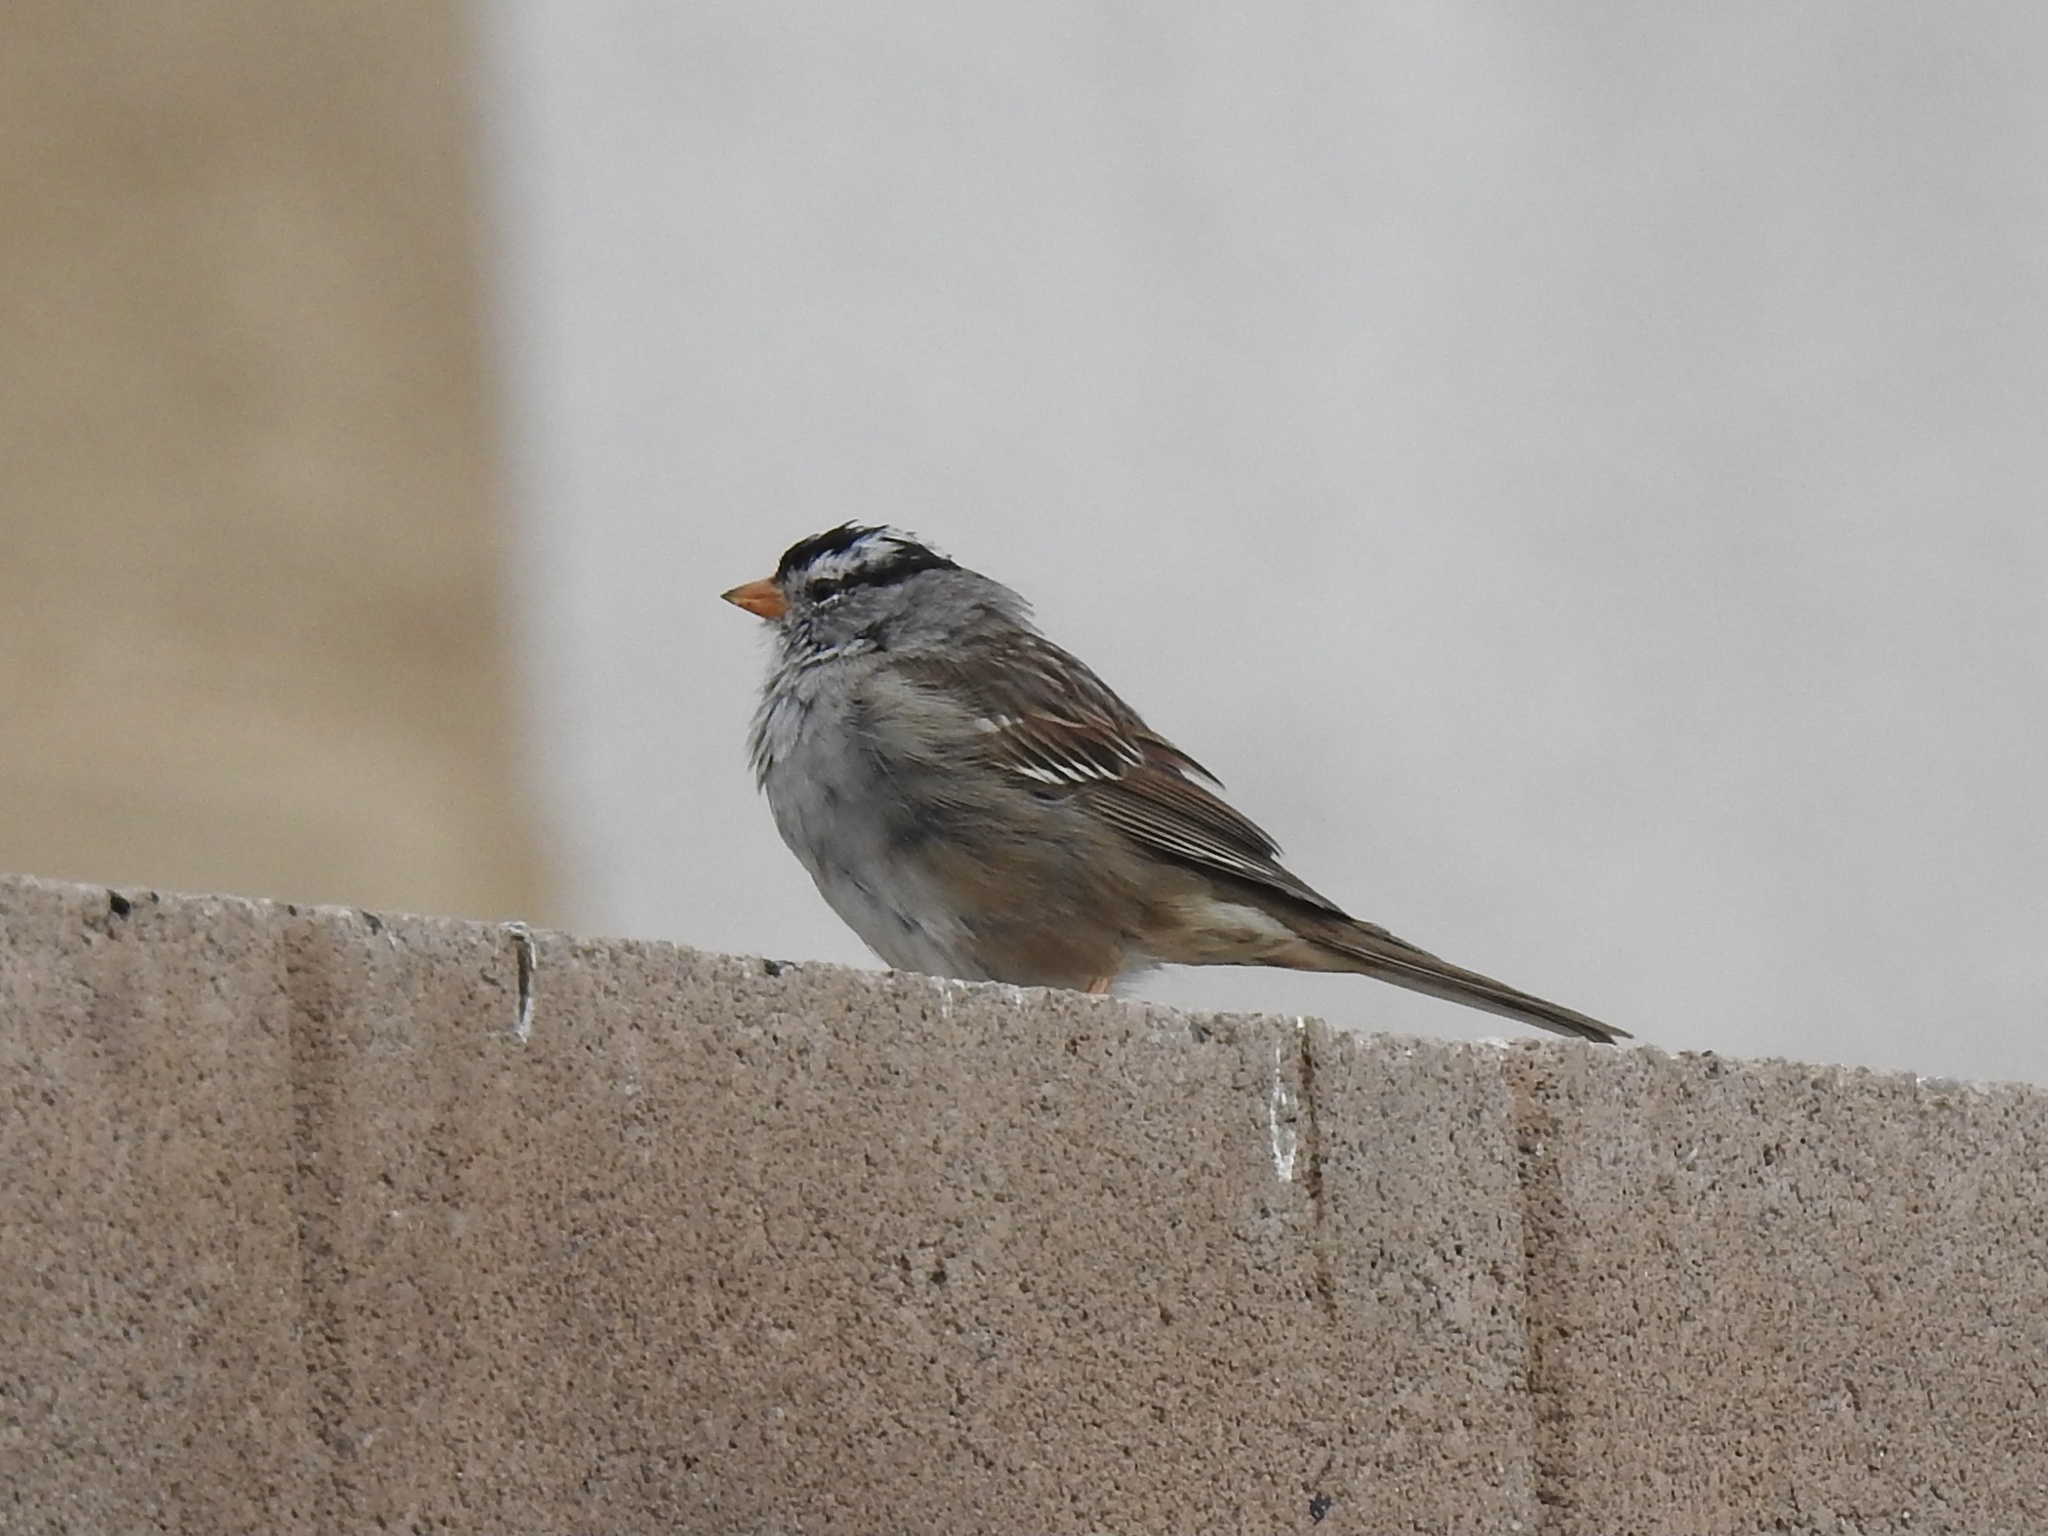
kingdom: Animalia
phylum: Chordata
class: Aves
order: Passeriformes
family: Passerellidae
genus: Zonotrichia
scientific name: Zonotrichia leucophrys
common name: White-crowned sparrow
